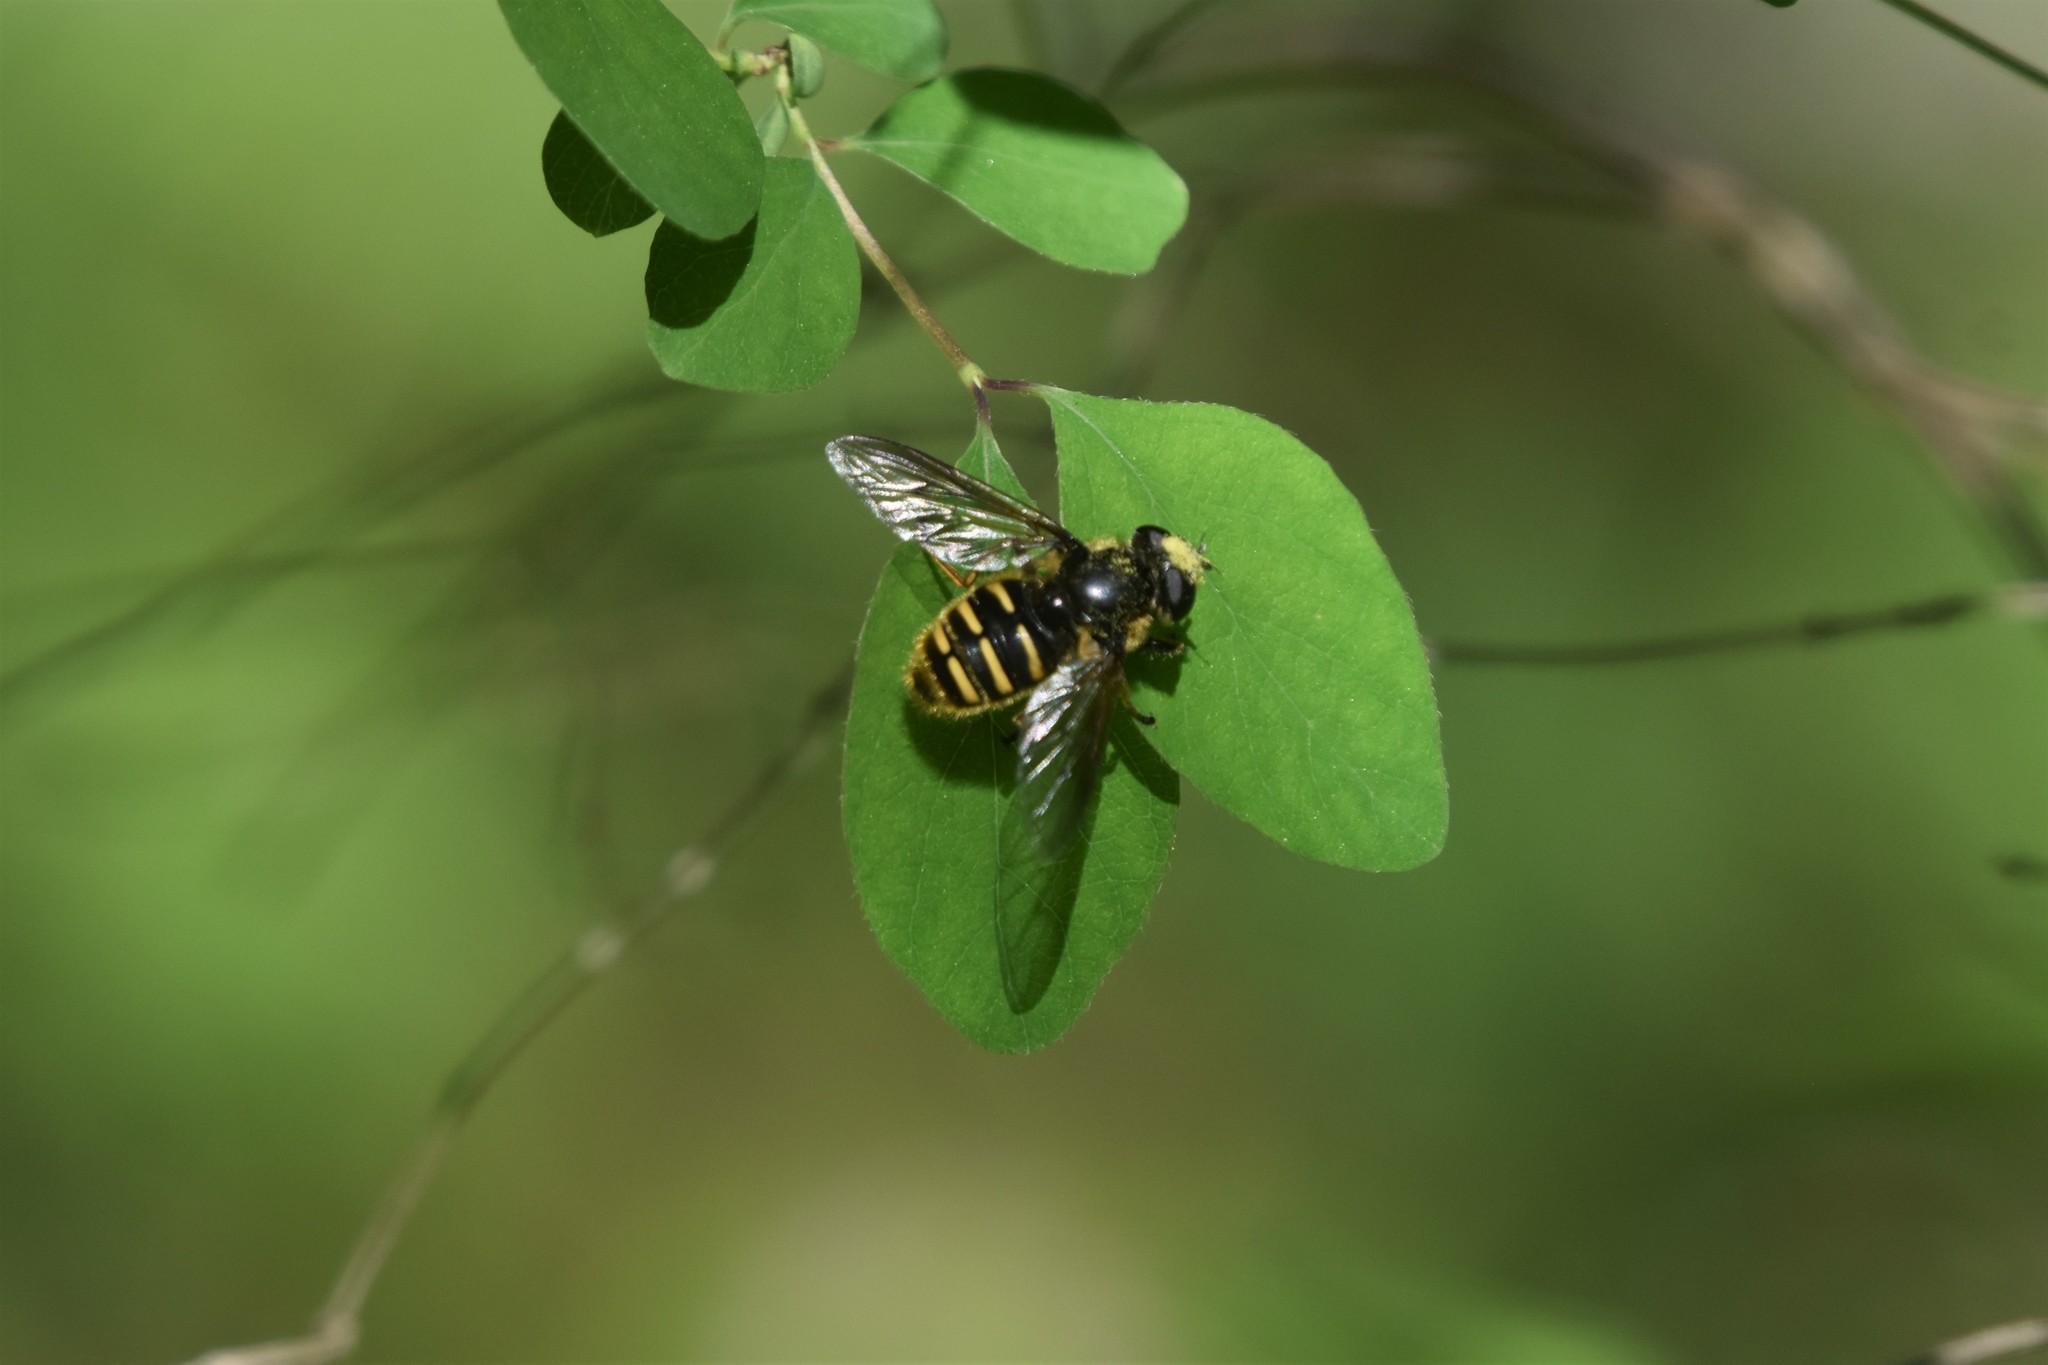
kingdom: Animalia
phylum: Arthropoda
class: Insecta
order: Diptera
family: Syrphidae
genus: Sericomyia
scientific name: Sericomyia chalcopyga
